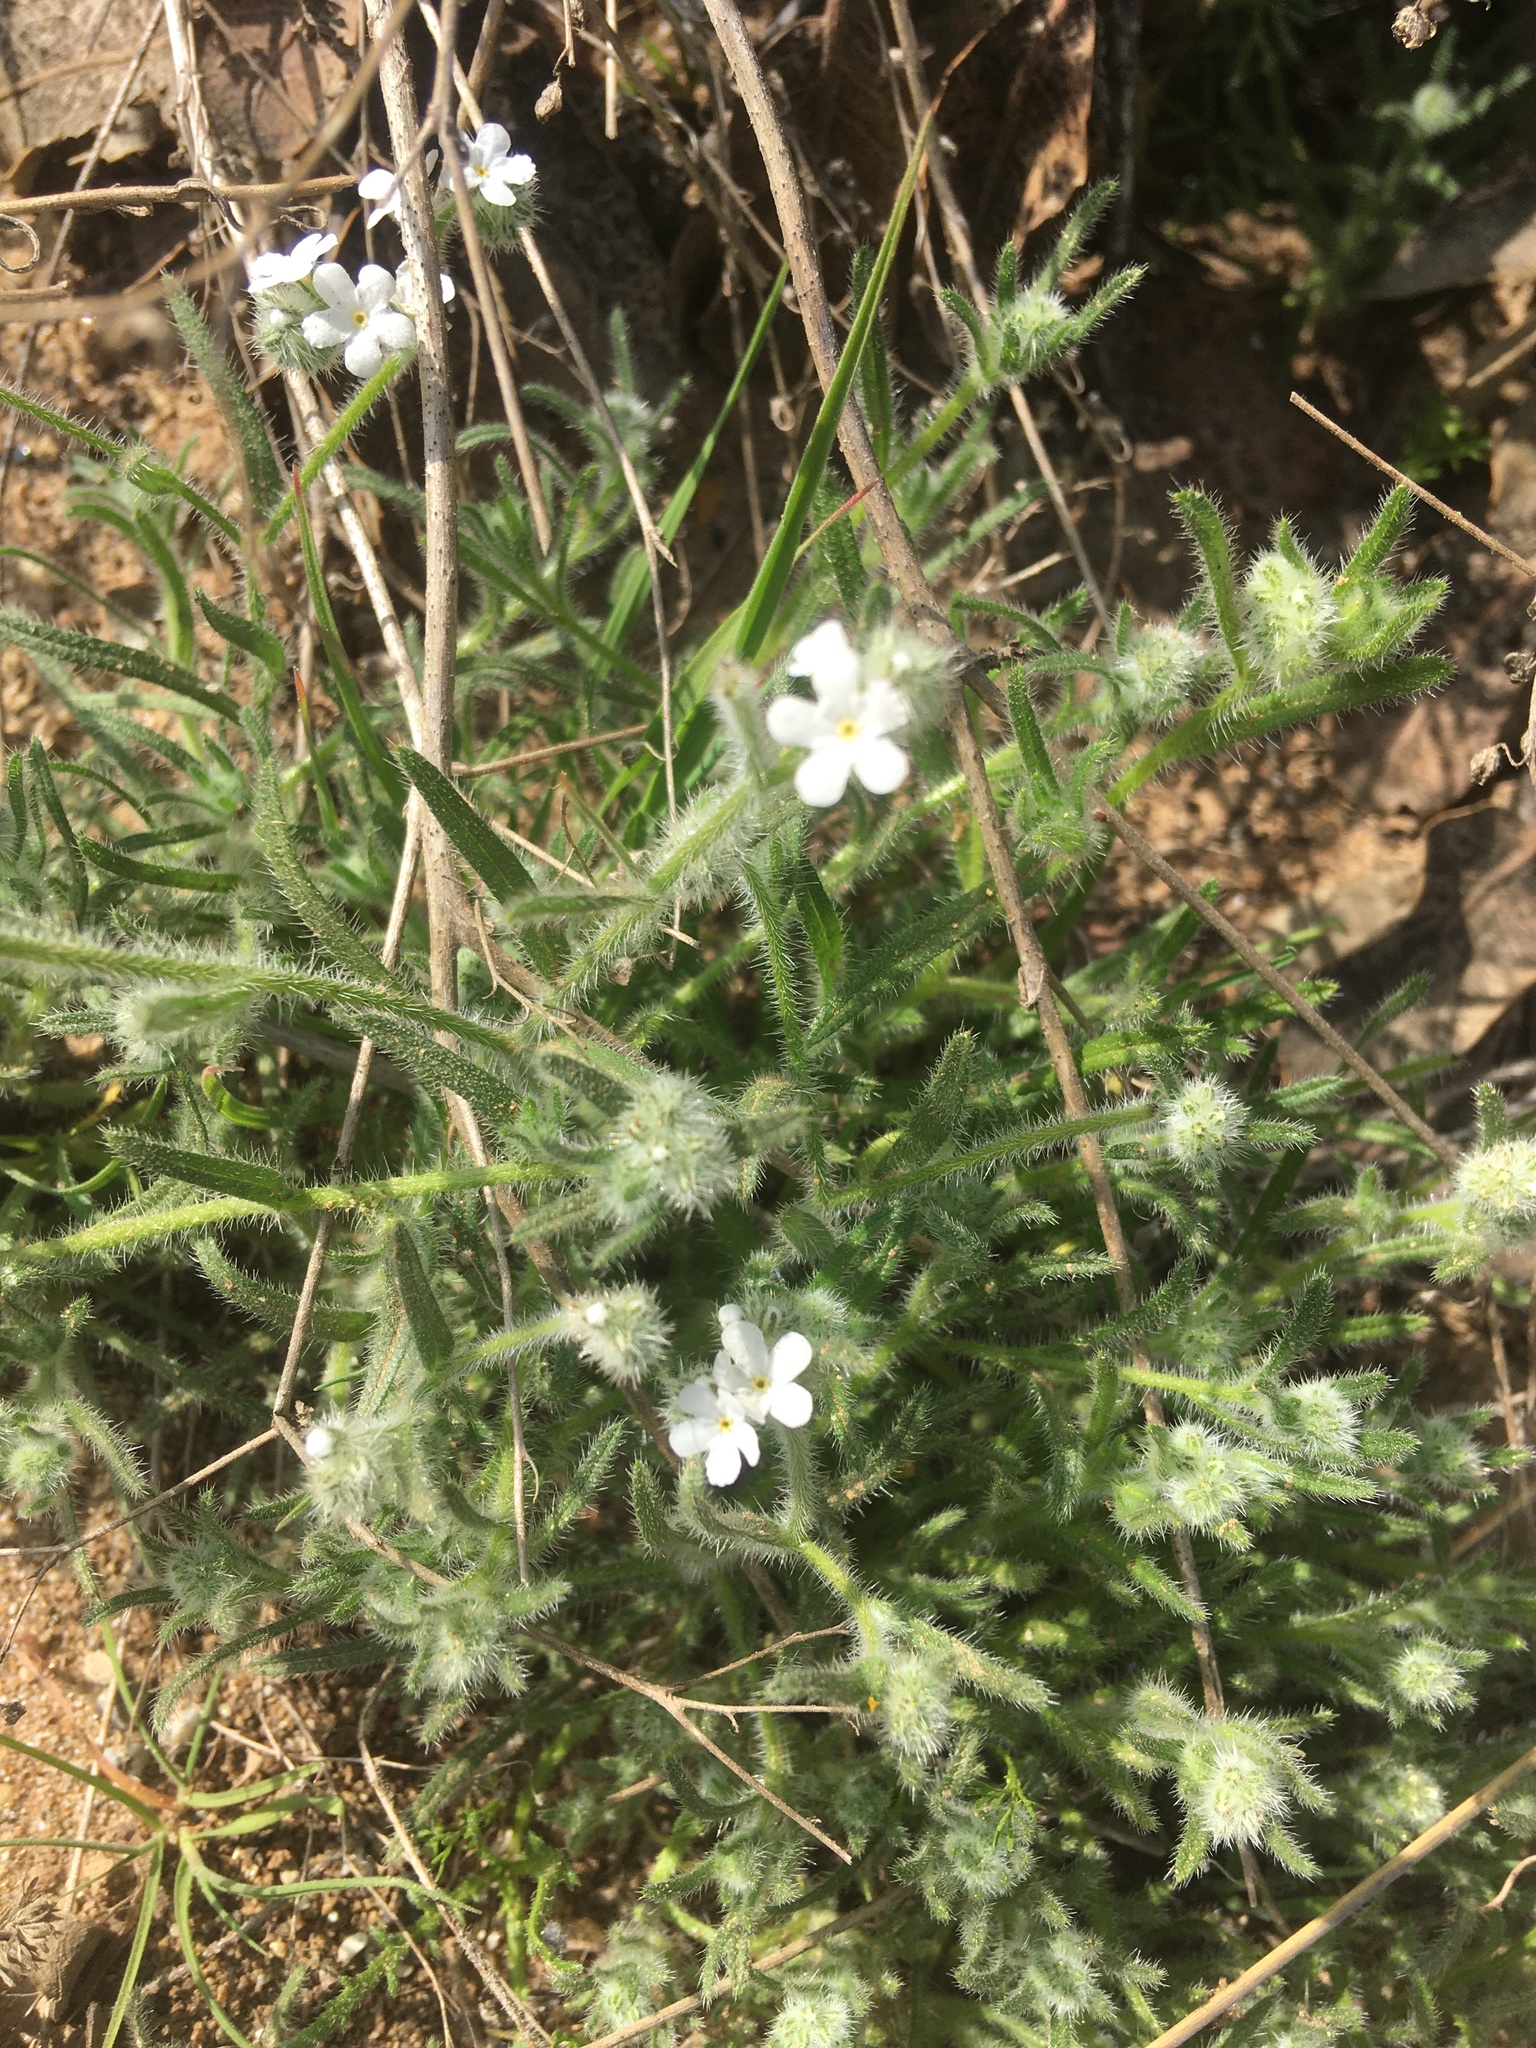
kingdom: Plantae
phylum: Tracheophyta
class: Magnoliopsida
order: Boraginales
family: Boraginaceae
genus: Cryptantha
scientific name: Cryptantha intermedia
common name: Clearwater cryptantha
